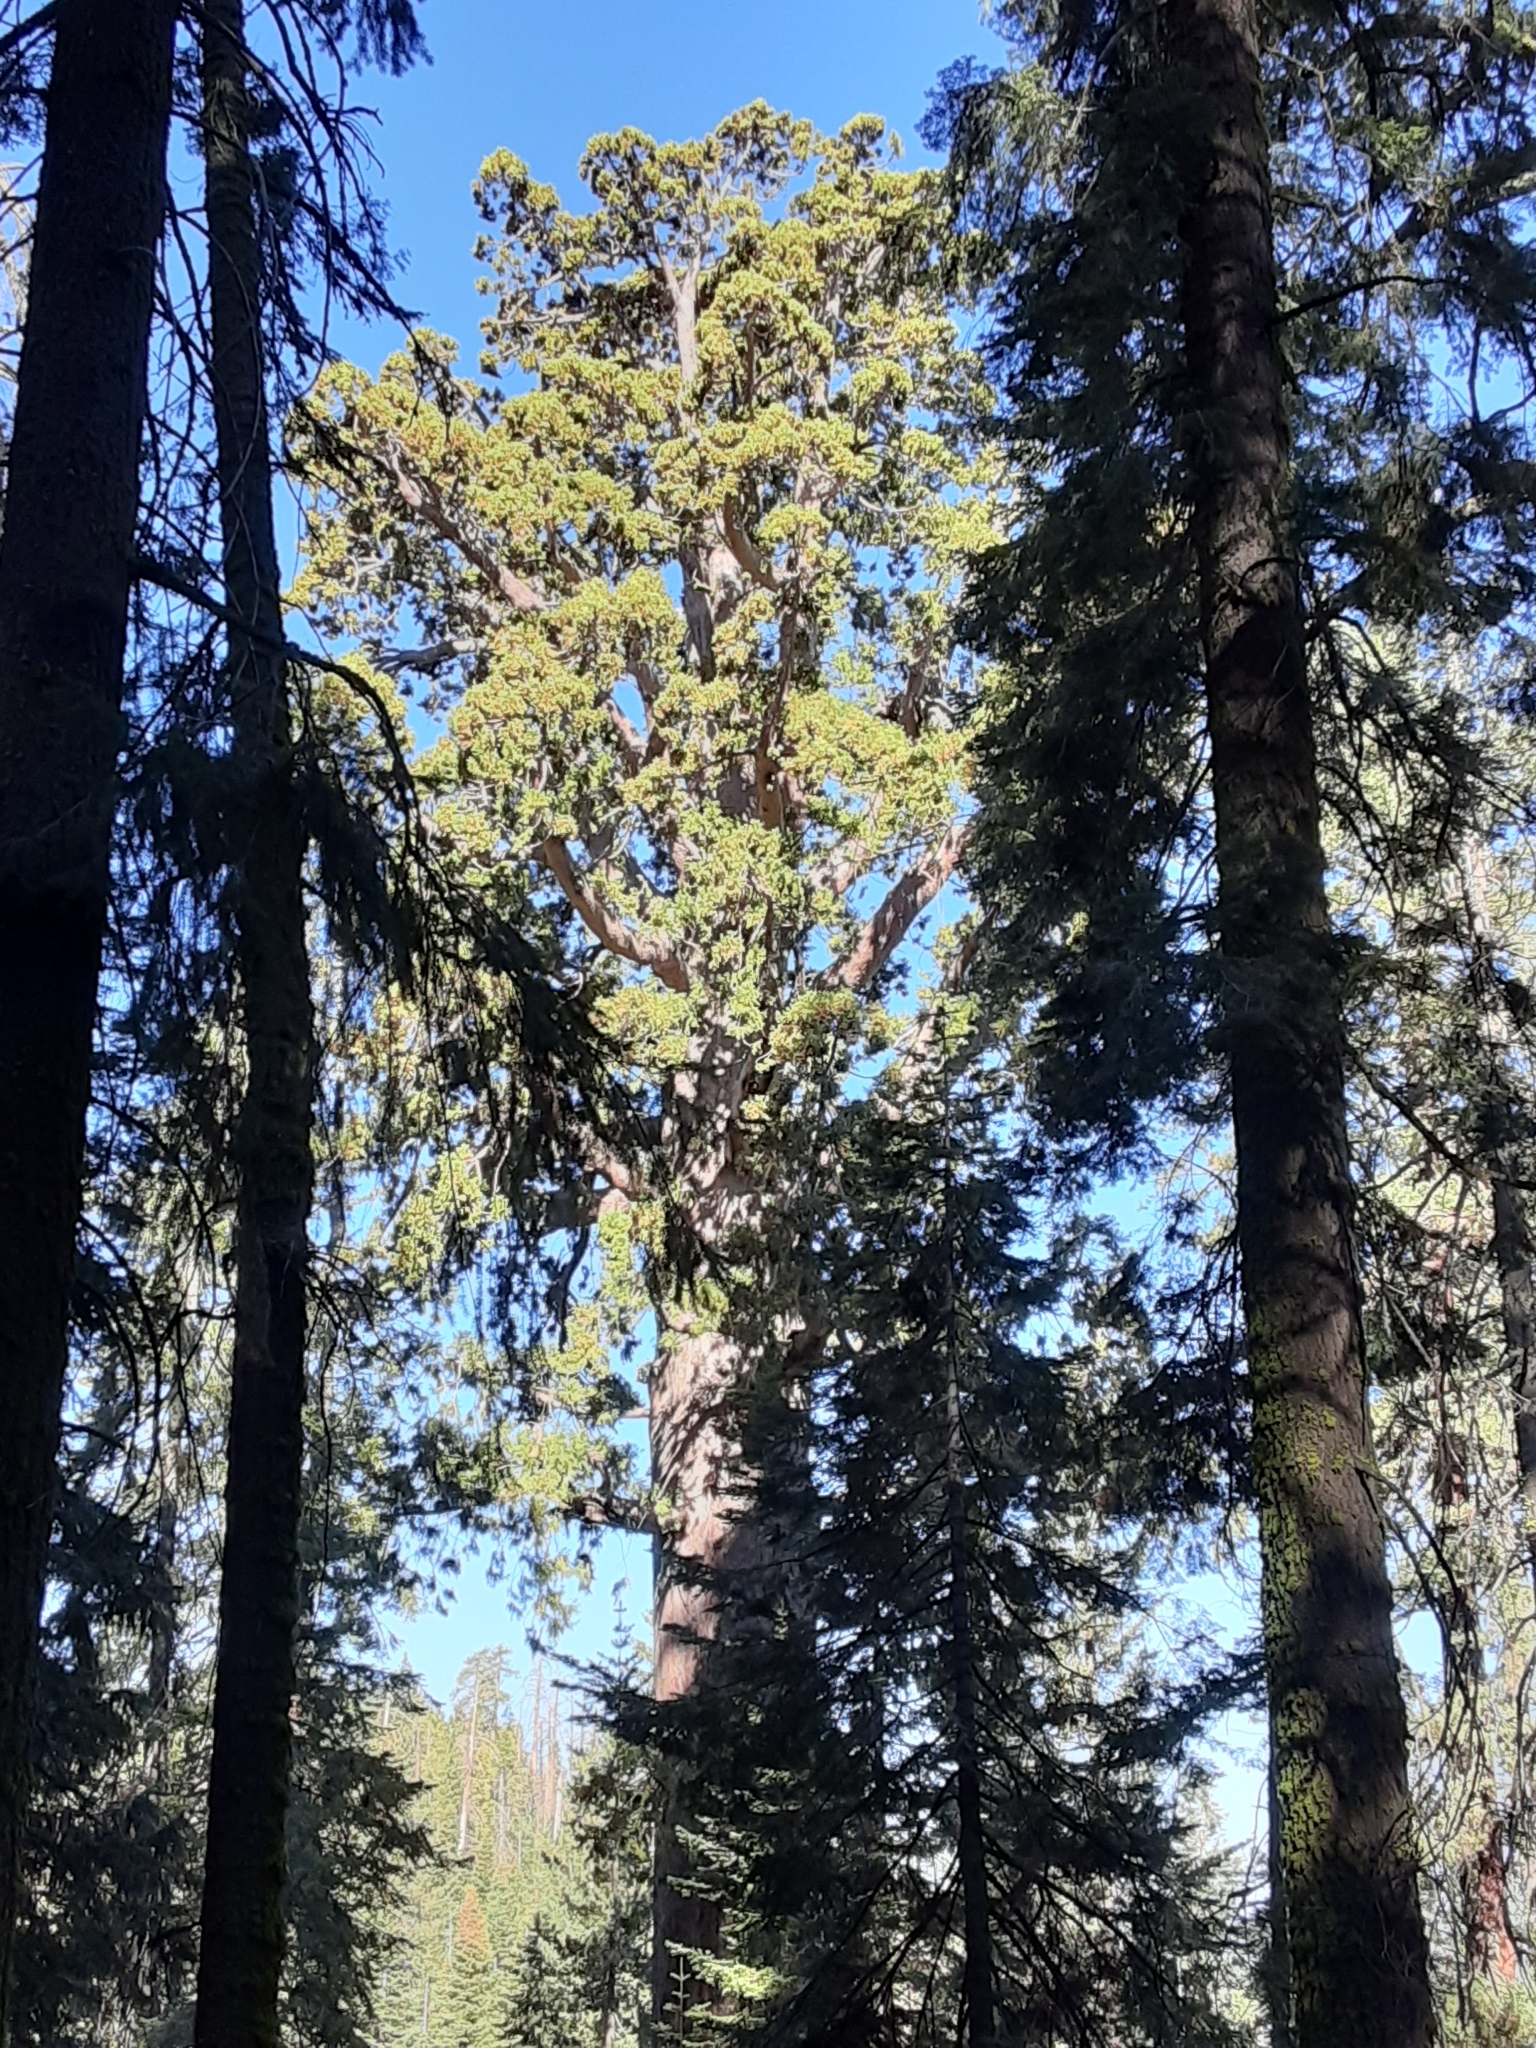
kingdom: Plantae
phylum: Tracheophyta
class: Pinopsida
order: Pinales
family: Cupressaceae
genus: Sequoiadendron
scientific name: Sequoiadendron giganteum
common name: Wellingtonia
